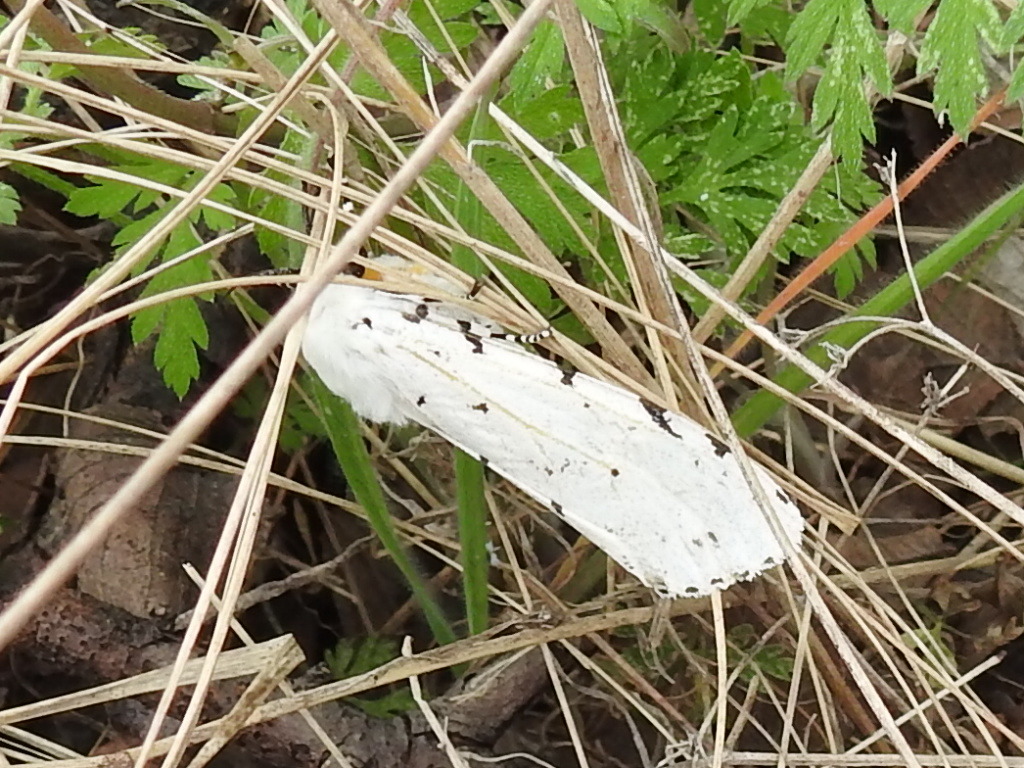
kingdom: Animalia
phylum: Arthropoda
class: Insecta
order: Lepidoptera
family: Erebidae
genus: Estigmene
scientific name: Estigmene acrea
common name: Salt marsh moth
